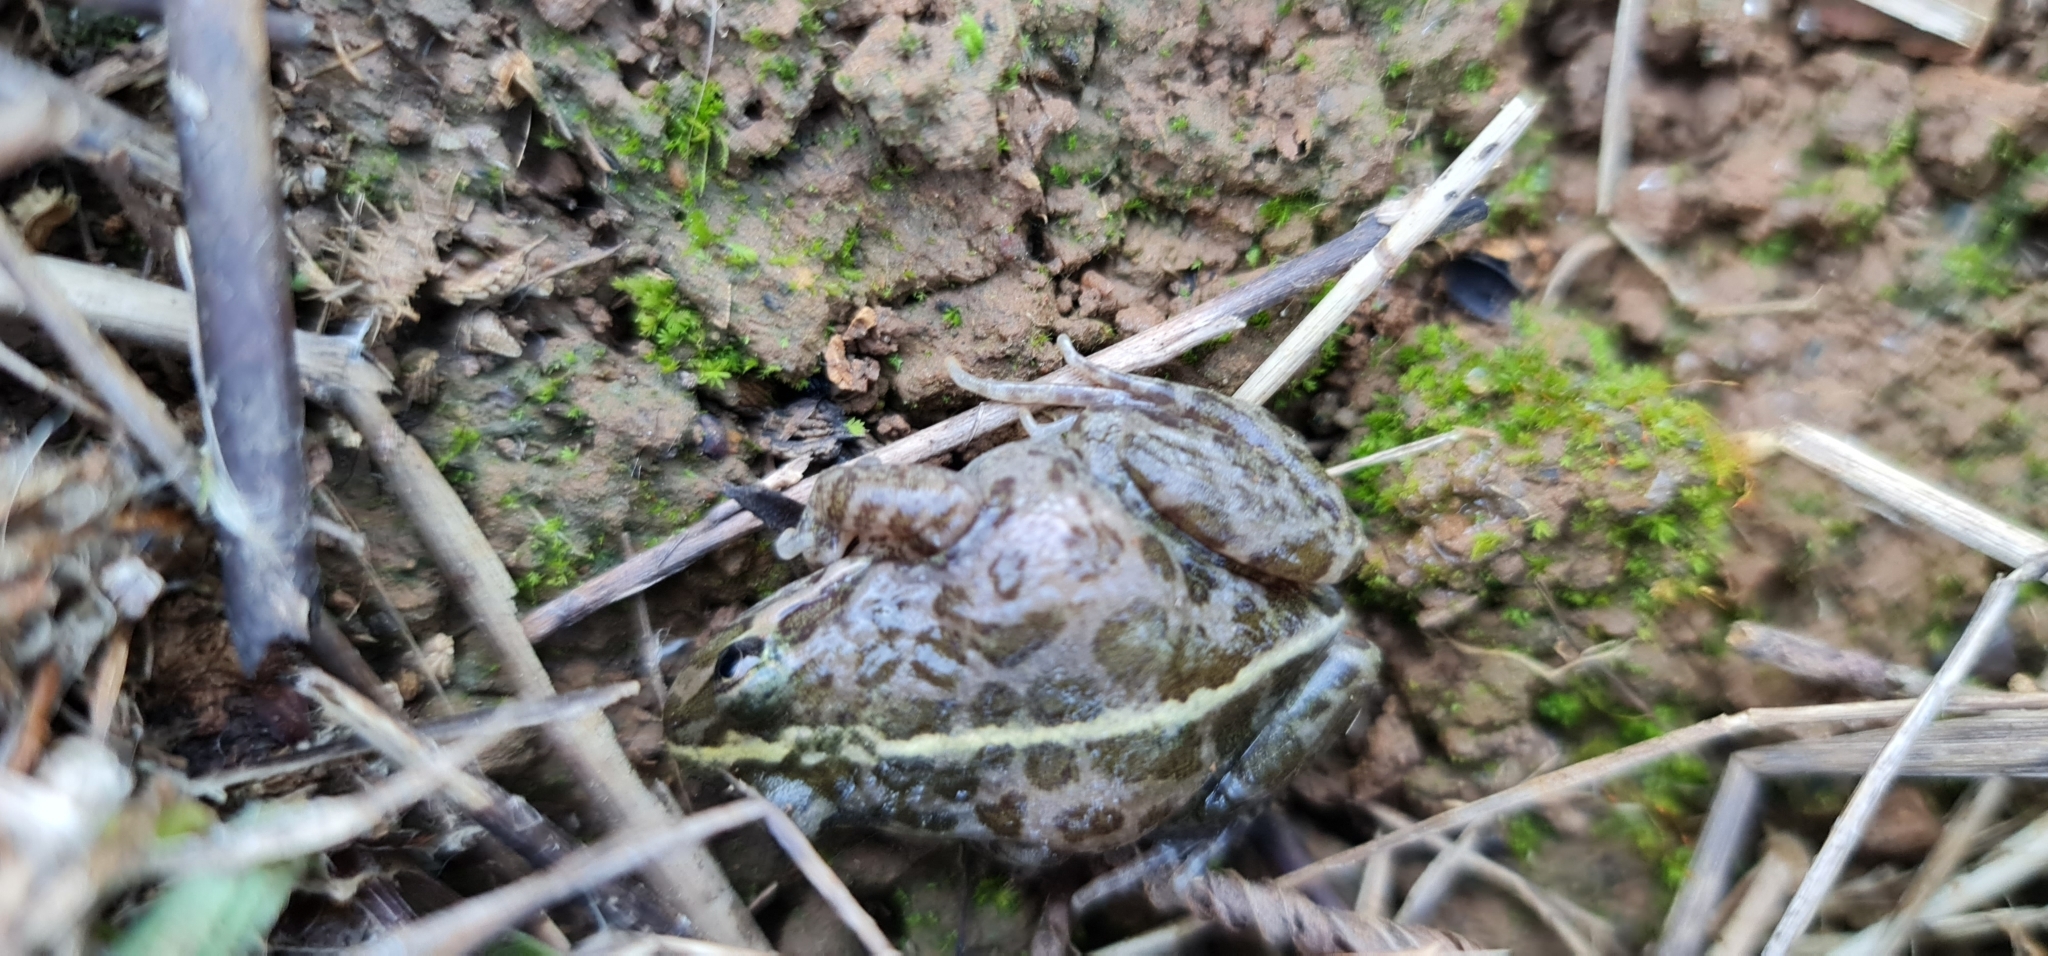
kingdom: Animalia
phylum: Chordata
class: Amphibia
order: Anura
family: Limnodynastidae
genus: Limnodynastes
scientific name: Limnodynastes tasmaniensis
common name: Spotted marsh frog
